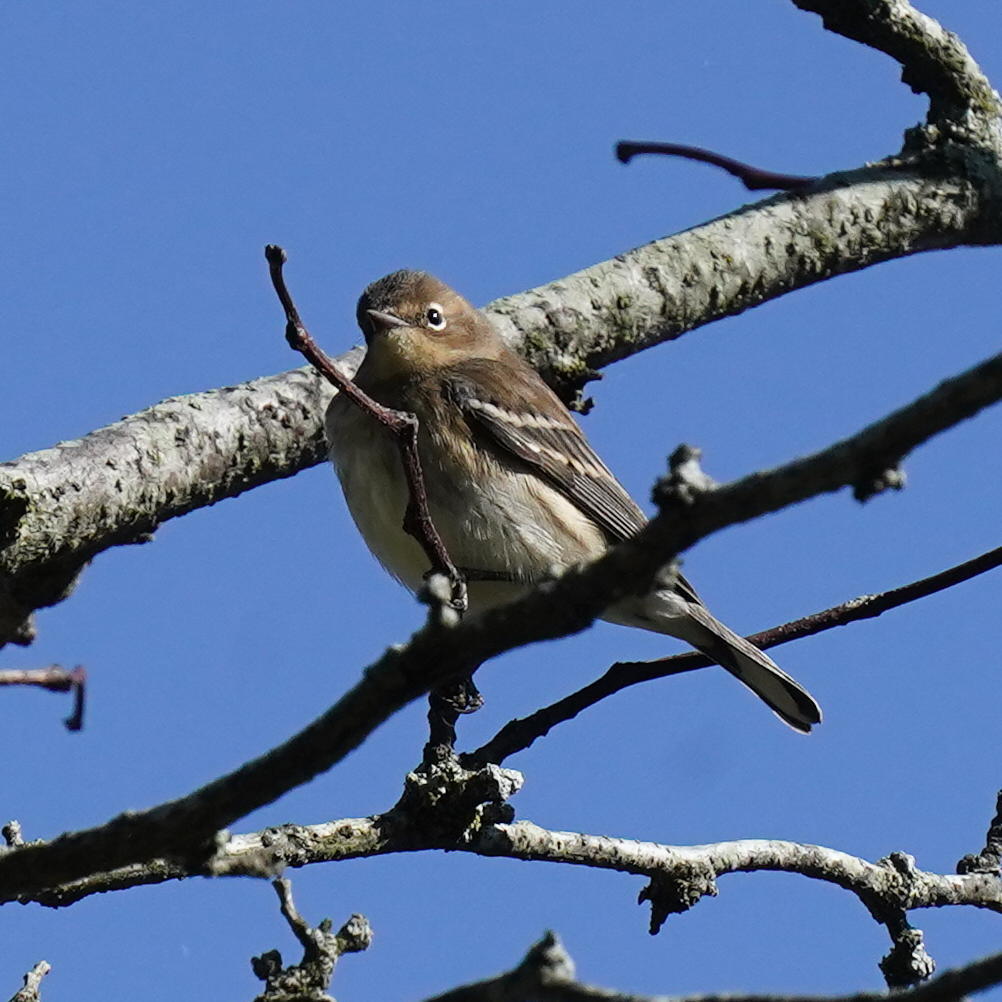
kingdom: Animalia
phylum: Chordata
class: Aves
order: Passeriformes
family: Parulidae
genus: Setophaga
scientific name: Setophaga coronata
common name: Myrtle warbler
